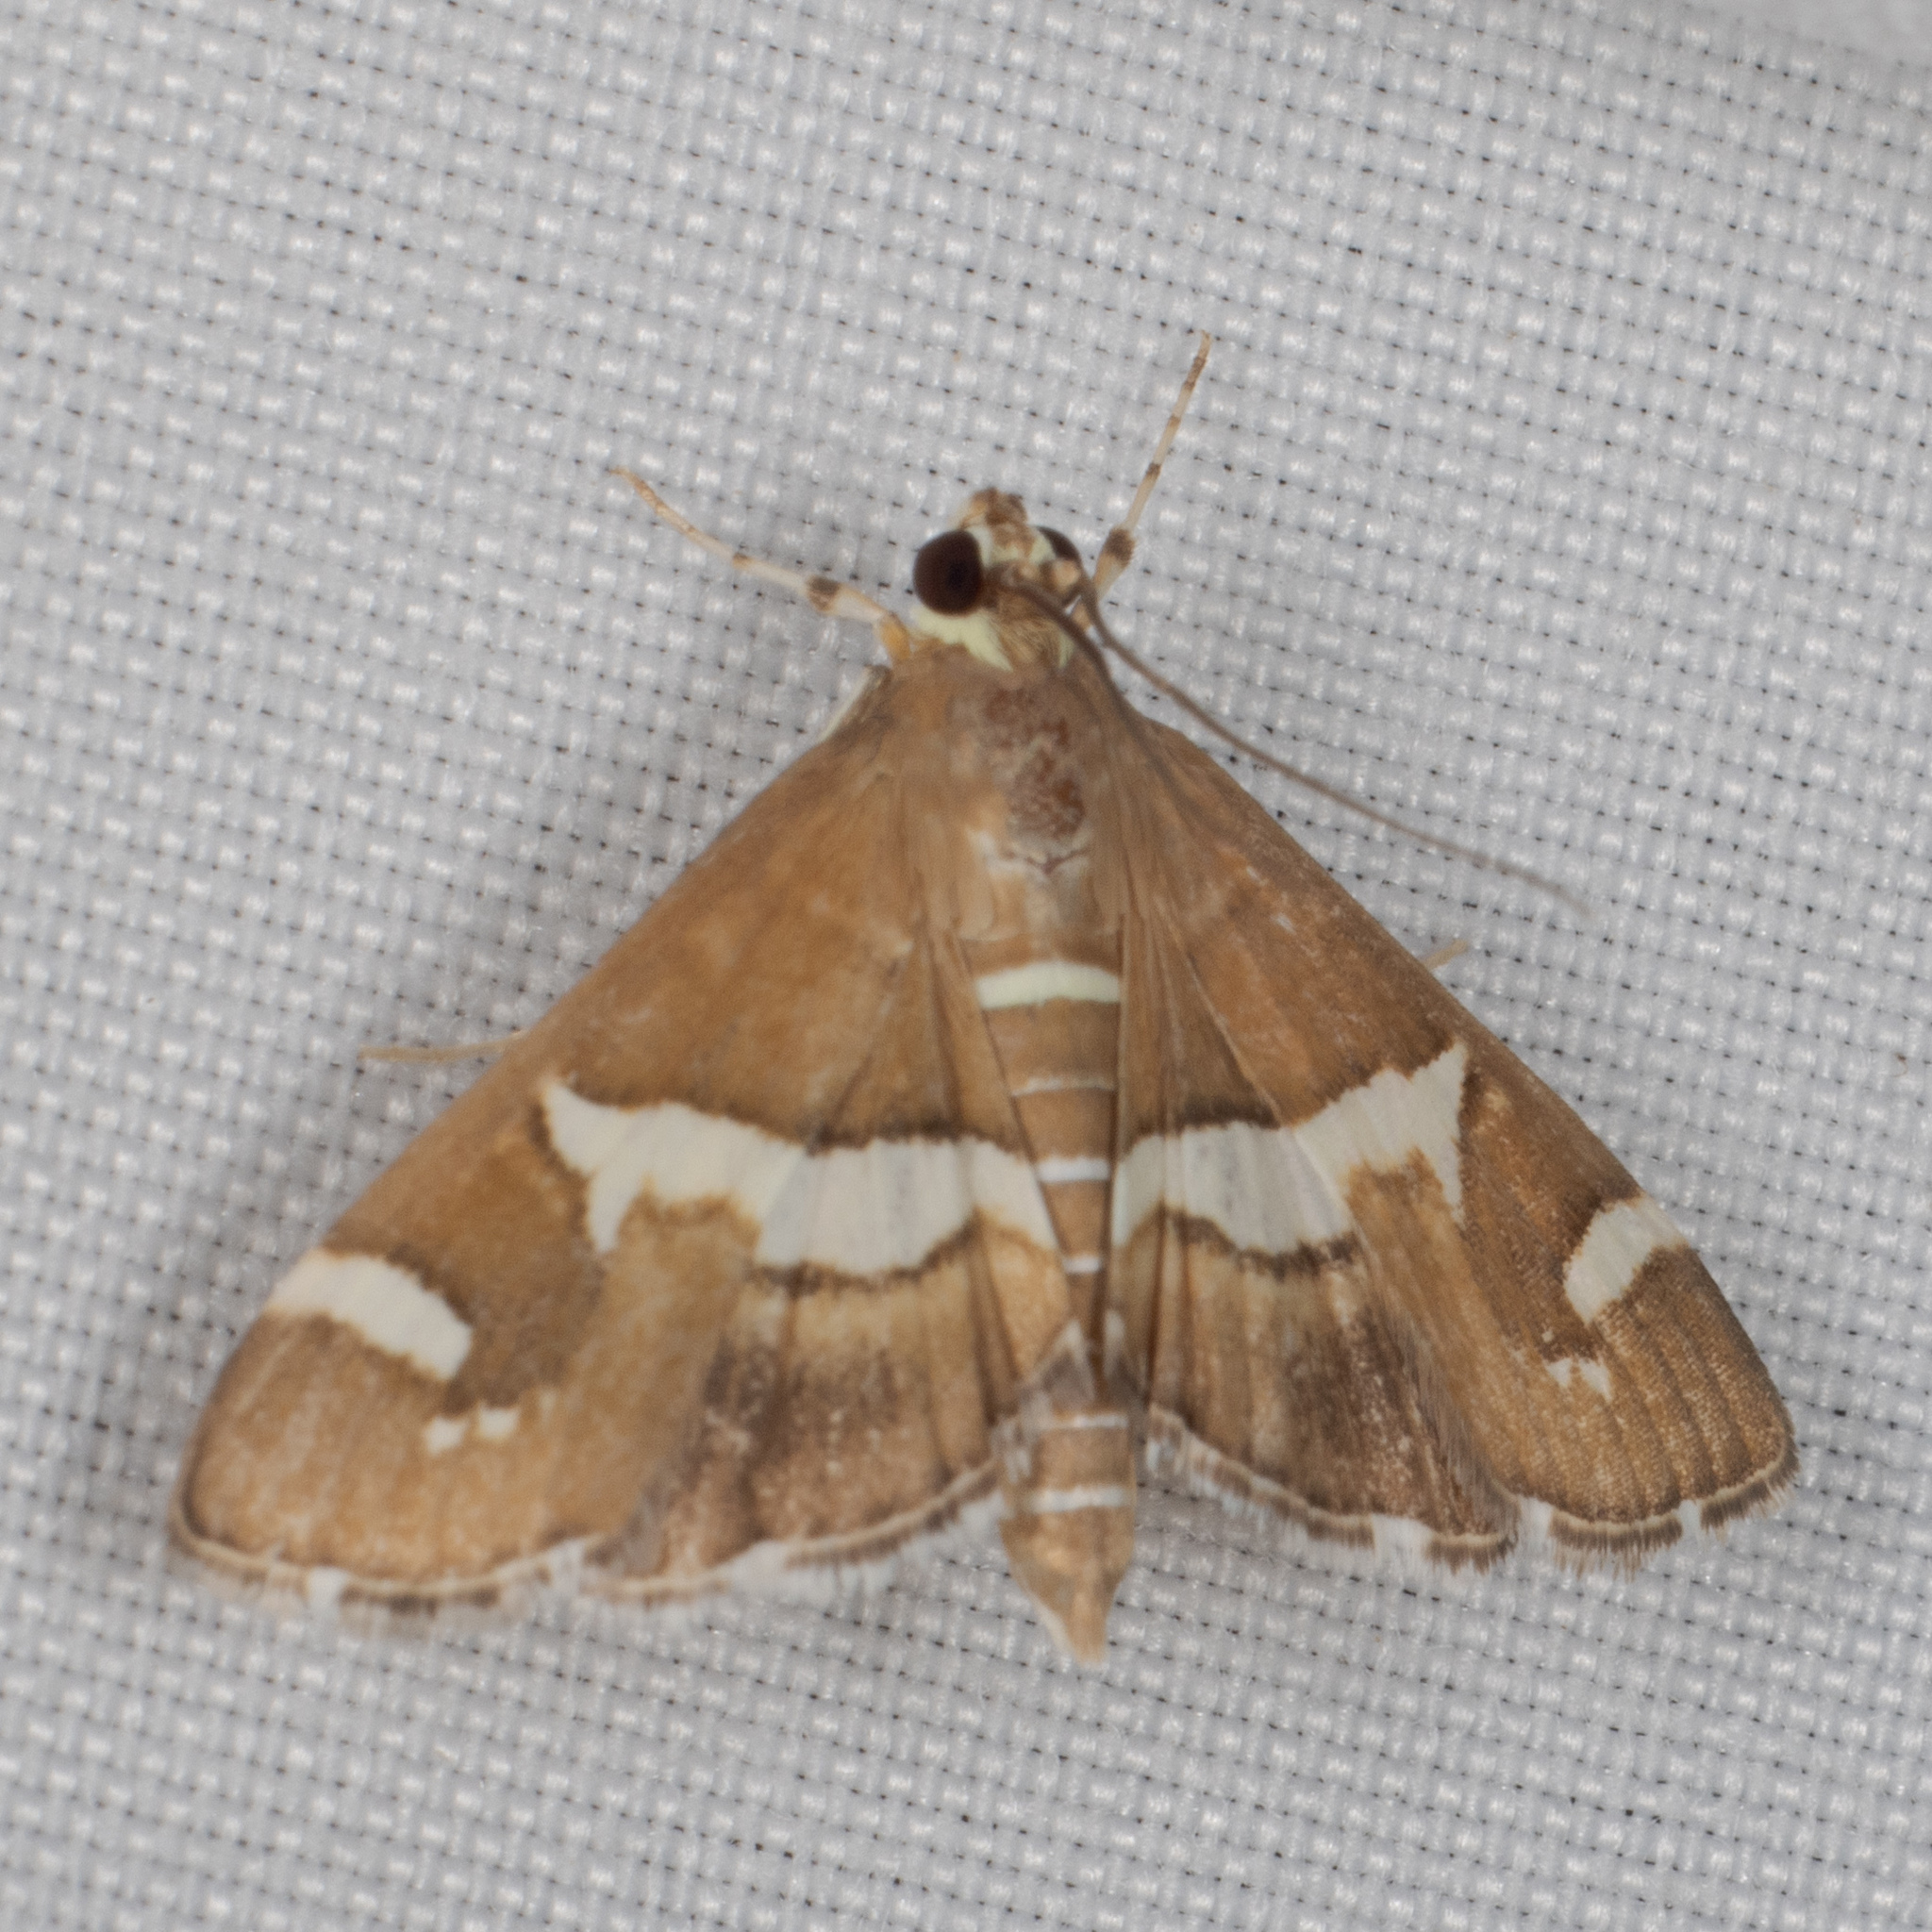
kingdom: Animalia
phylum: Arthropoda
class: Insecta
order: Lepidoptera
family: Crambidae
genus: Spoladea
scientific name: Spoladea recurvalis
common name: Beet webworm moth
